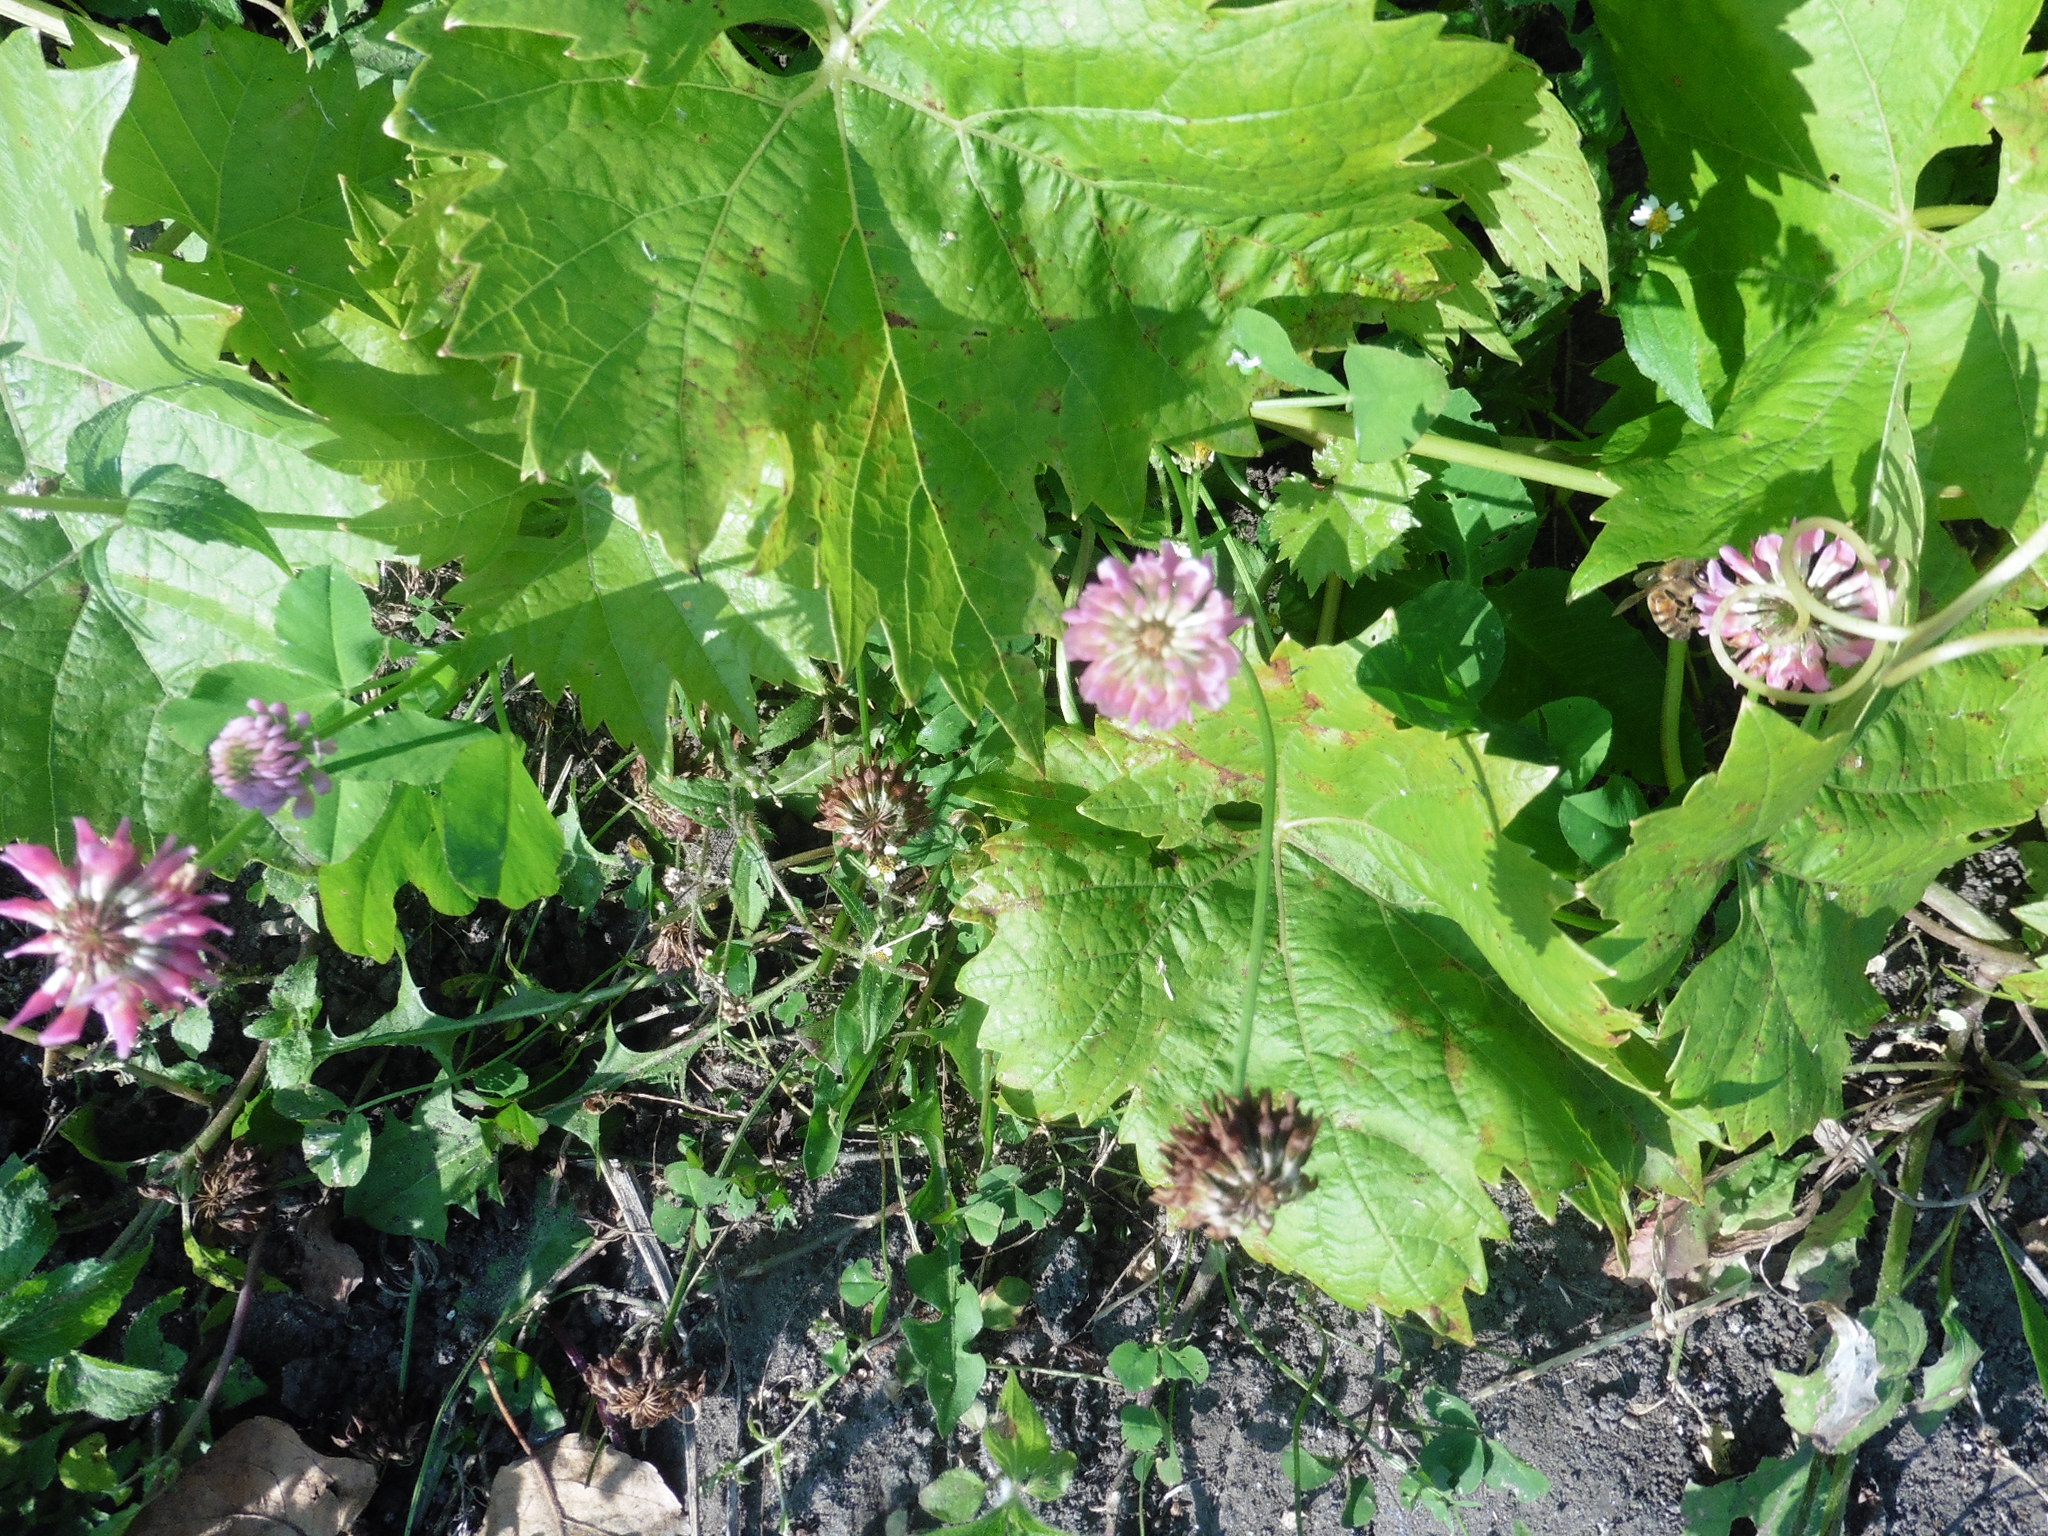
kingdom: Plantae
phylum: Tracheophyta
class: Magnoliopsida
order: Fabales
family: Fabaceae
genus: Trifolium
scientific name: Trifolium hybridum
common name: Alsike clover
